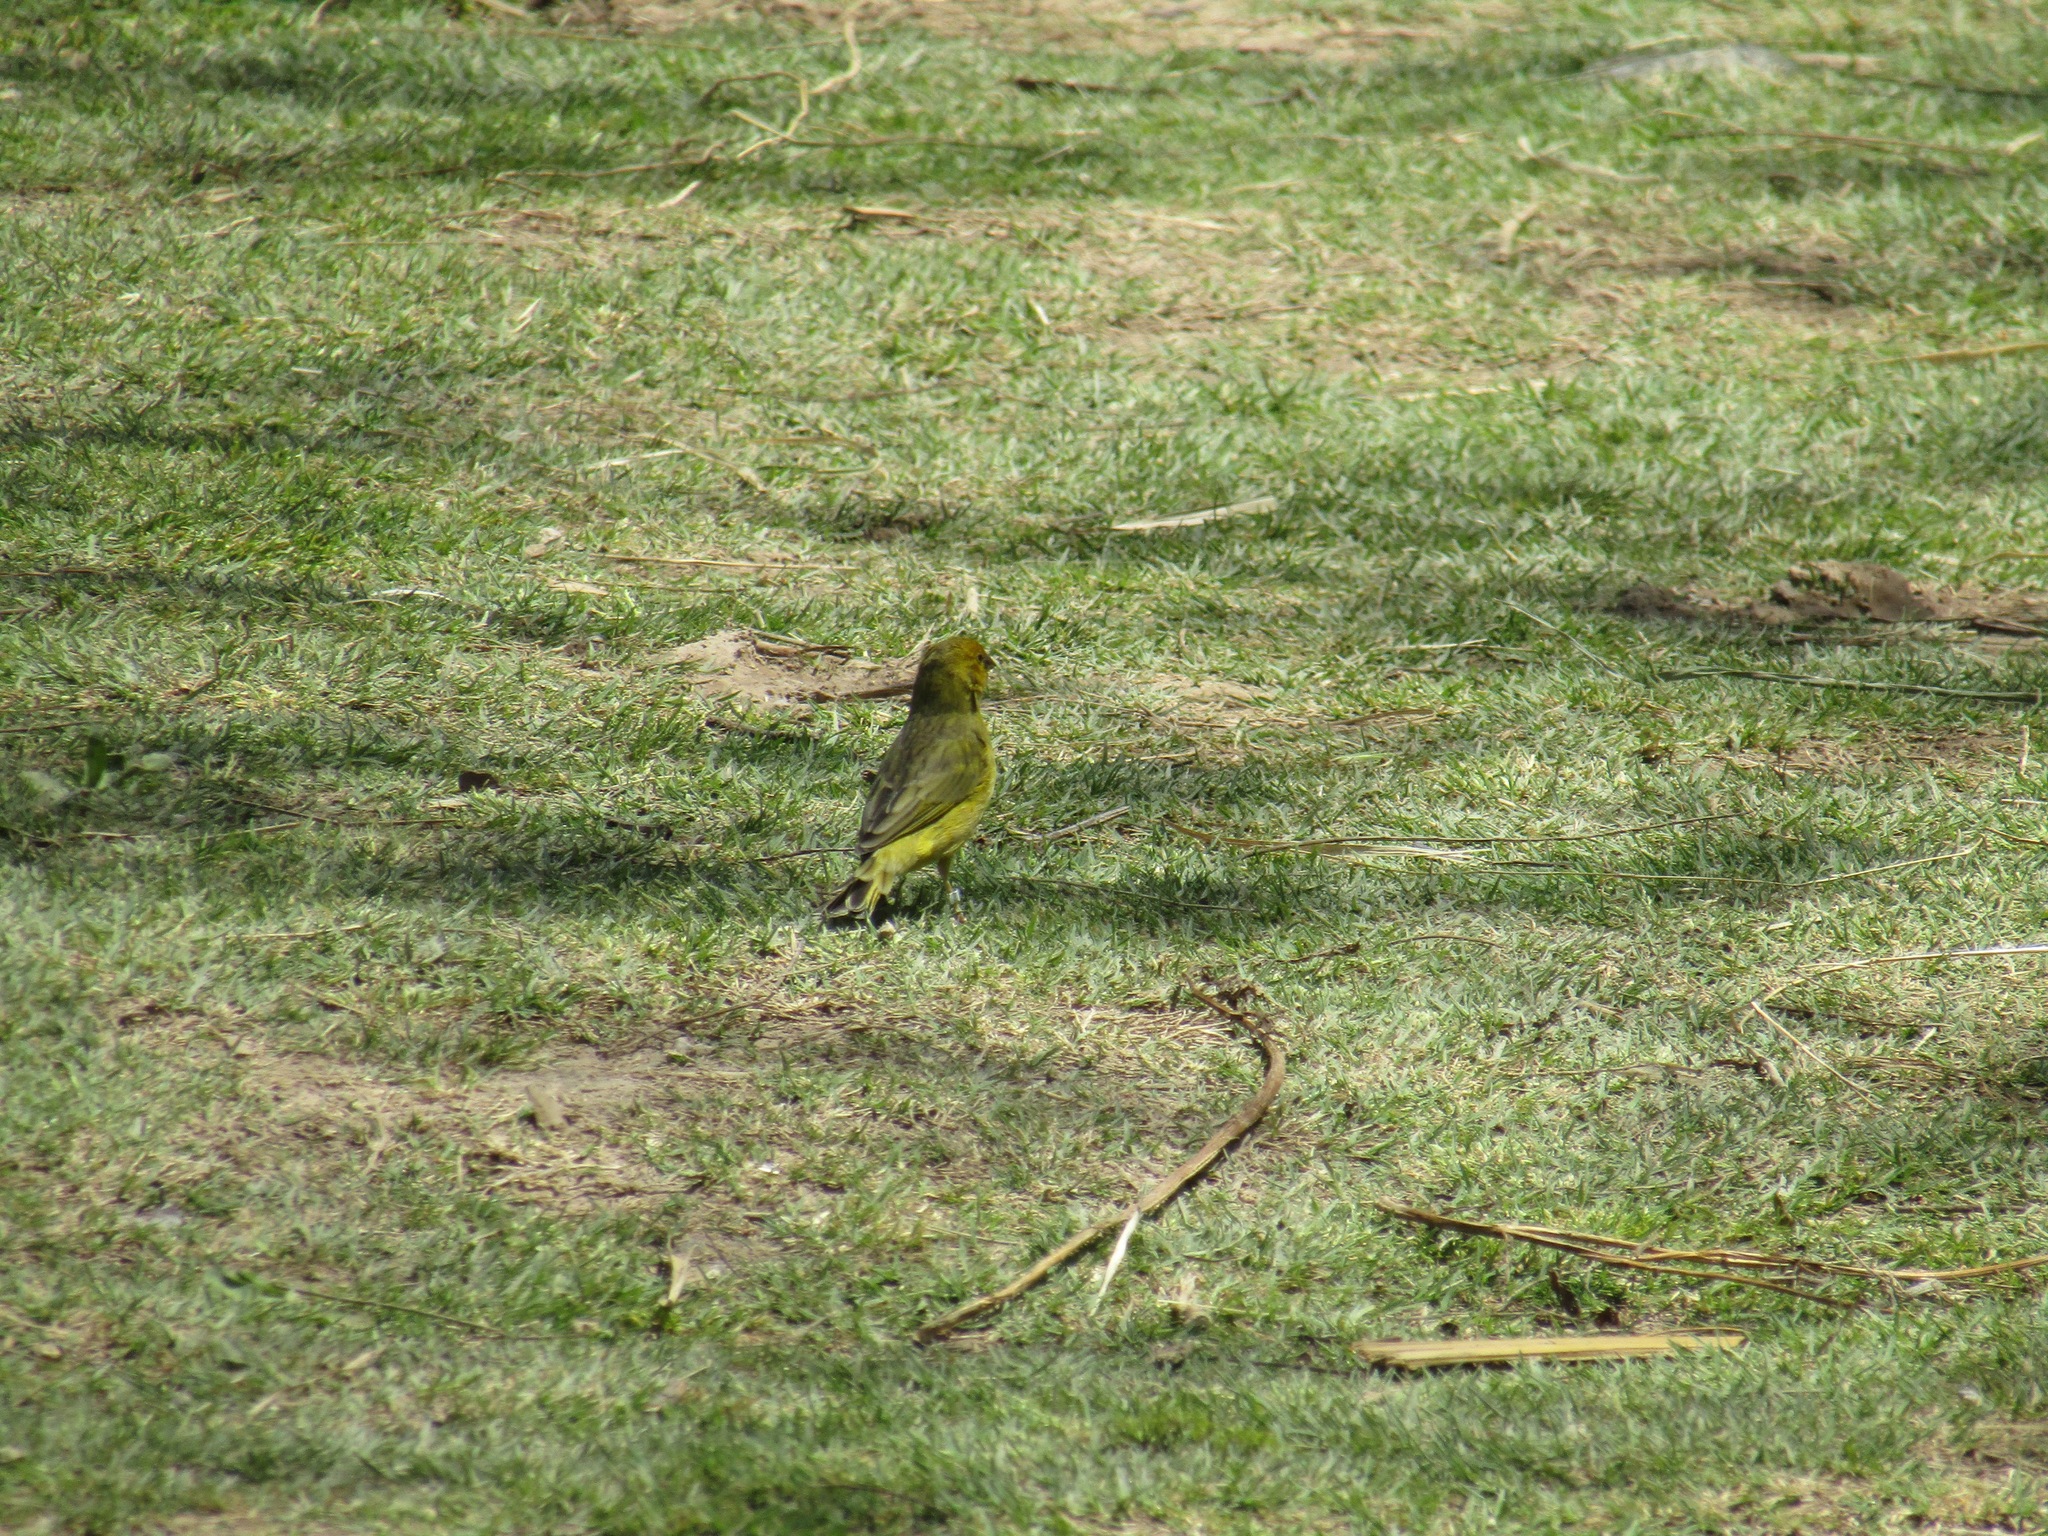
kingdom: Animalia
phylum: Chordata
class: Aves
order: Passeriformes
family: Thraupidae
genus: Sicalis
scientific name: Sicalis flaveola
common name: Saffron finch
